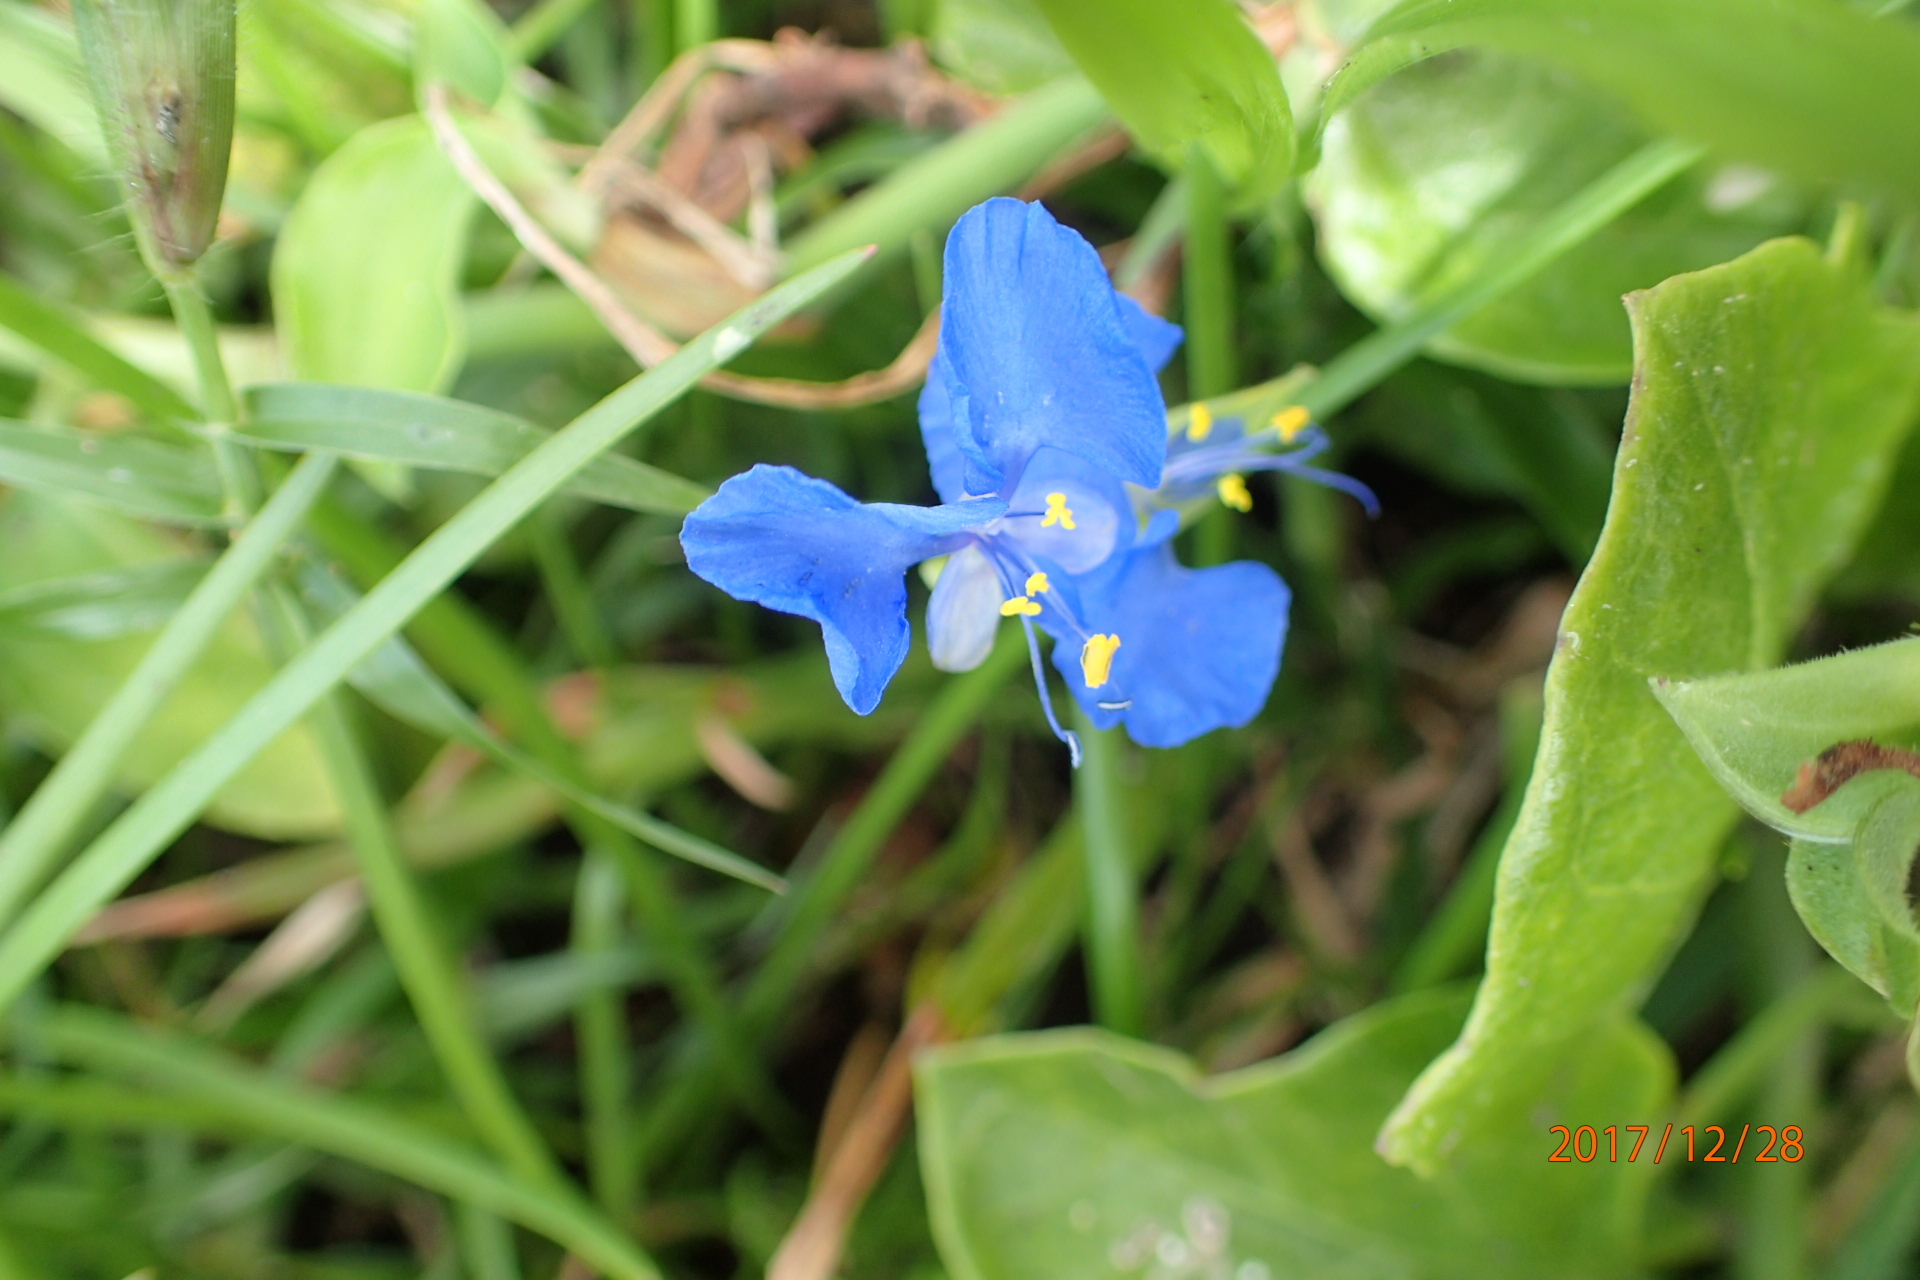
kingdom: Plantae
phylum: Tracheophyta
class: Liliopsida
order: Commelinales
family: Commelinaceae
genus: Commelina
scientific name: Commelina benghalensis
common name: Jio
